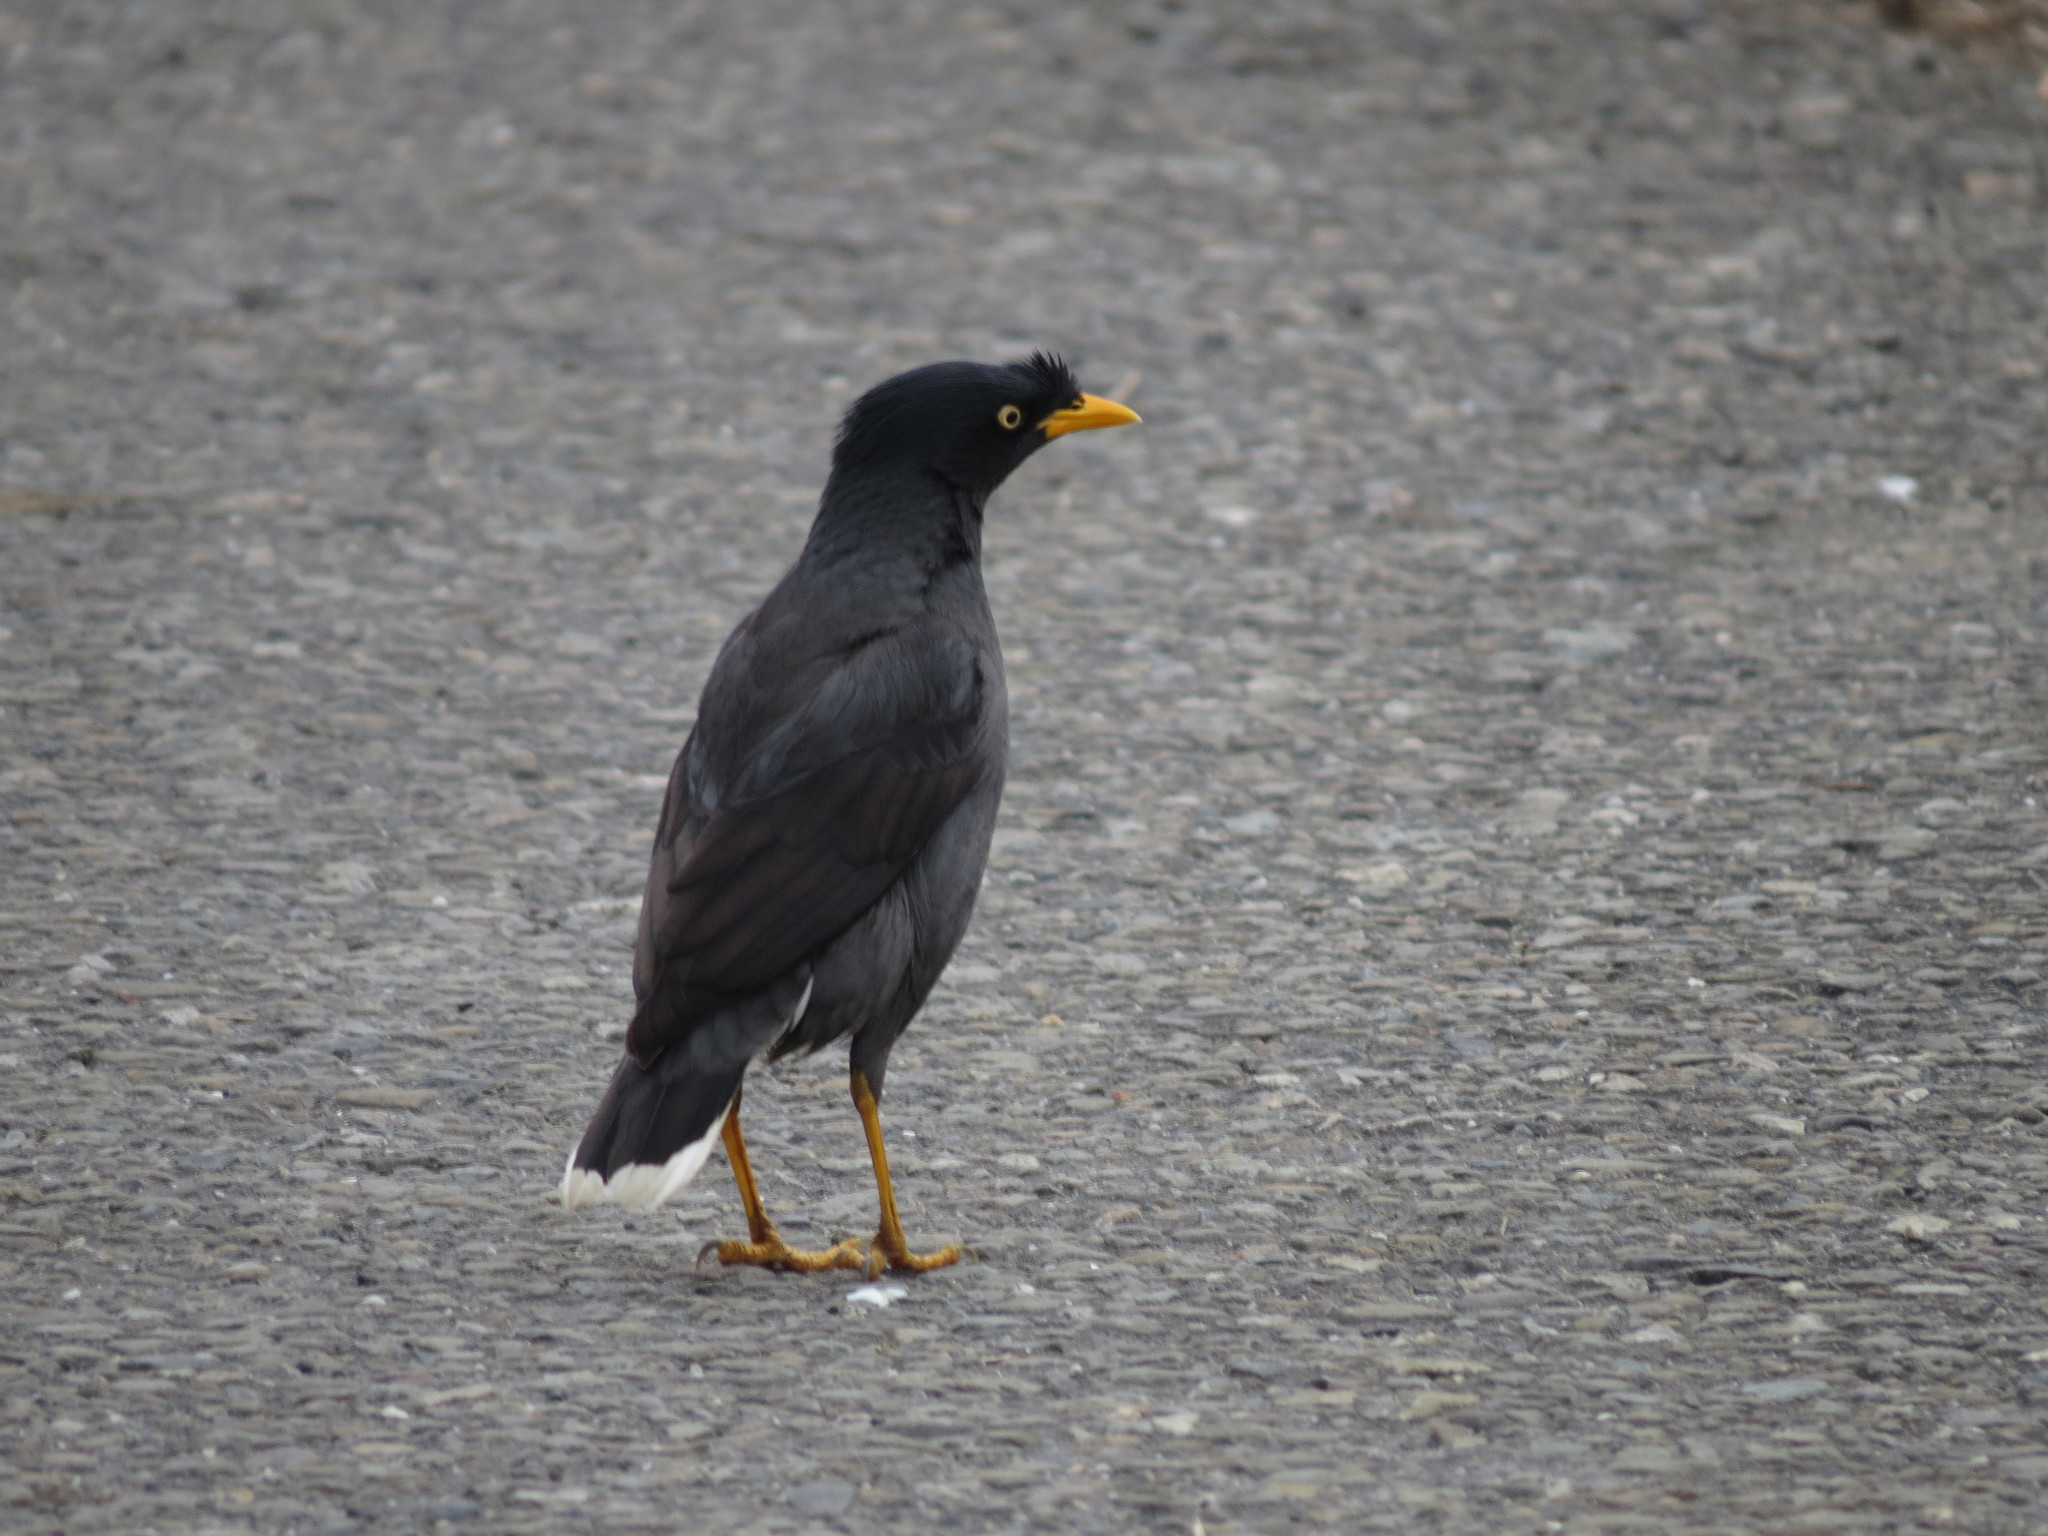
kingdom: Animalia
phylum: Chordata
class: Aves
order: Passeriformes
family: Sturnidae
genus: Acridotheres
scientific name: Acridotheres javanicus
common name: Javan myna
